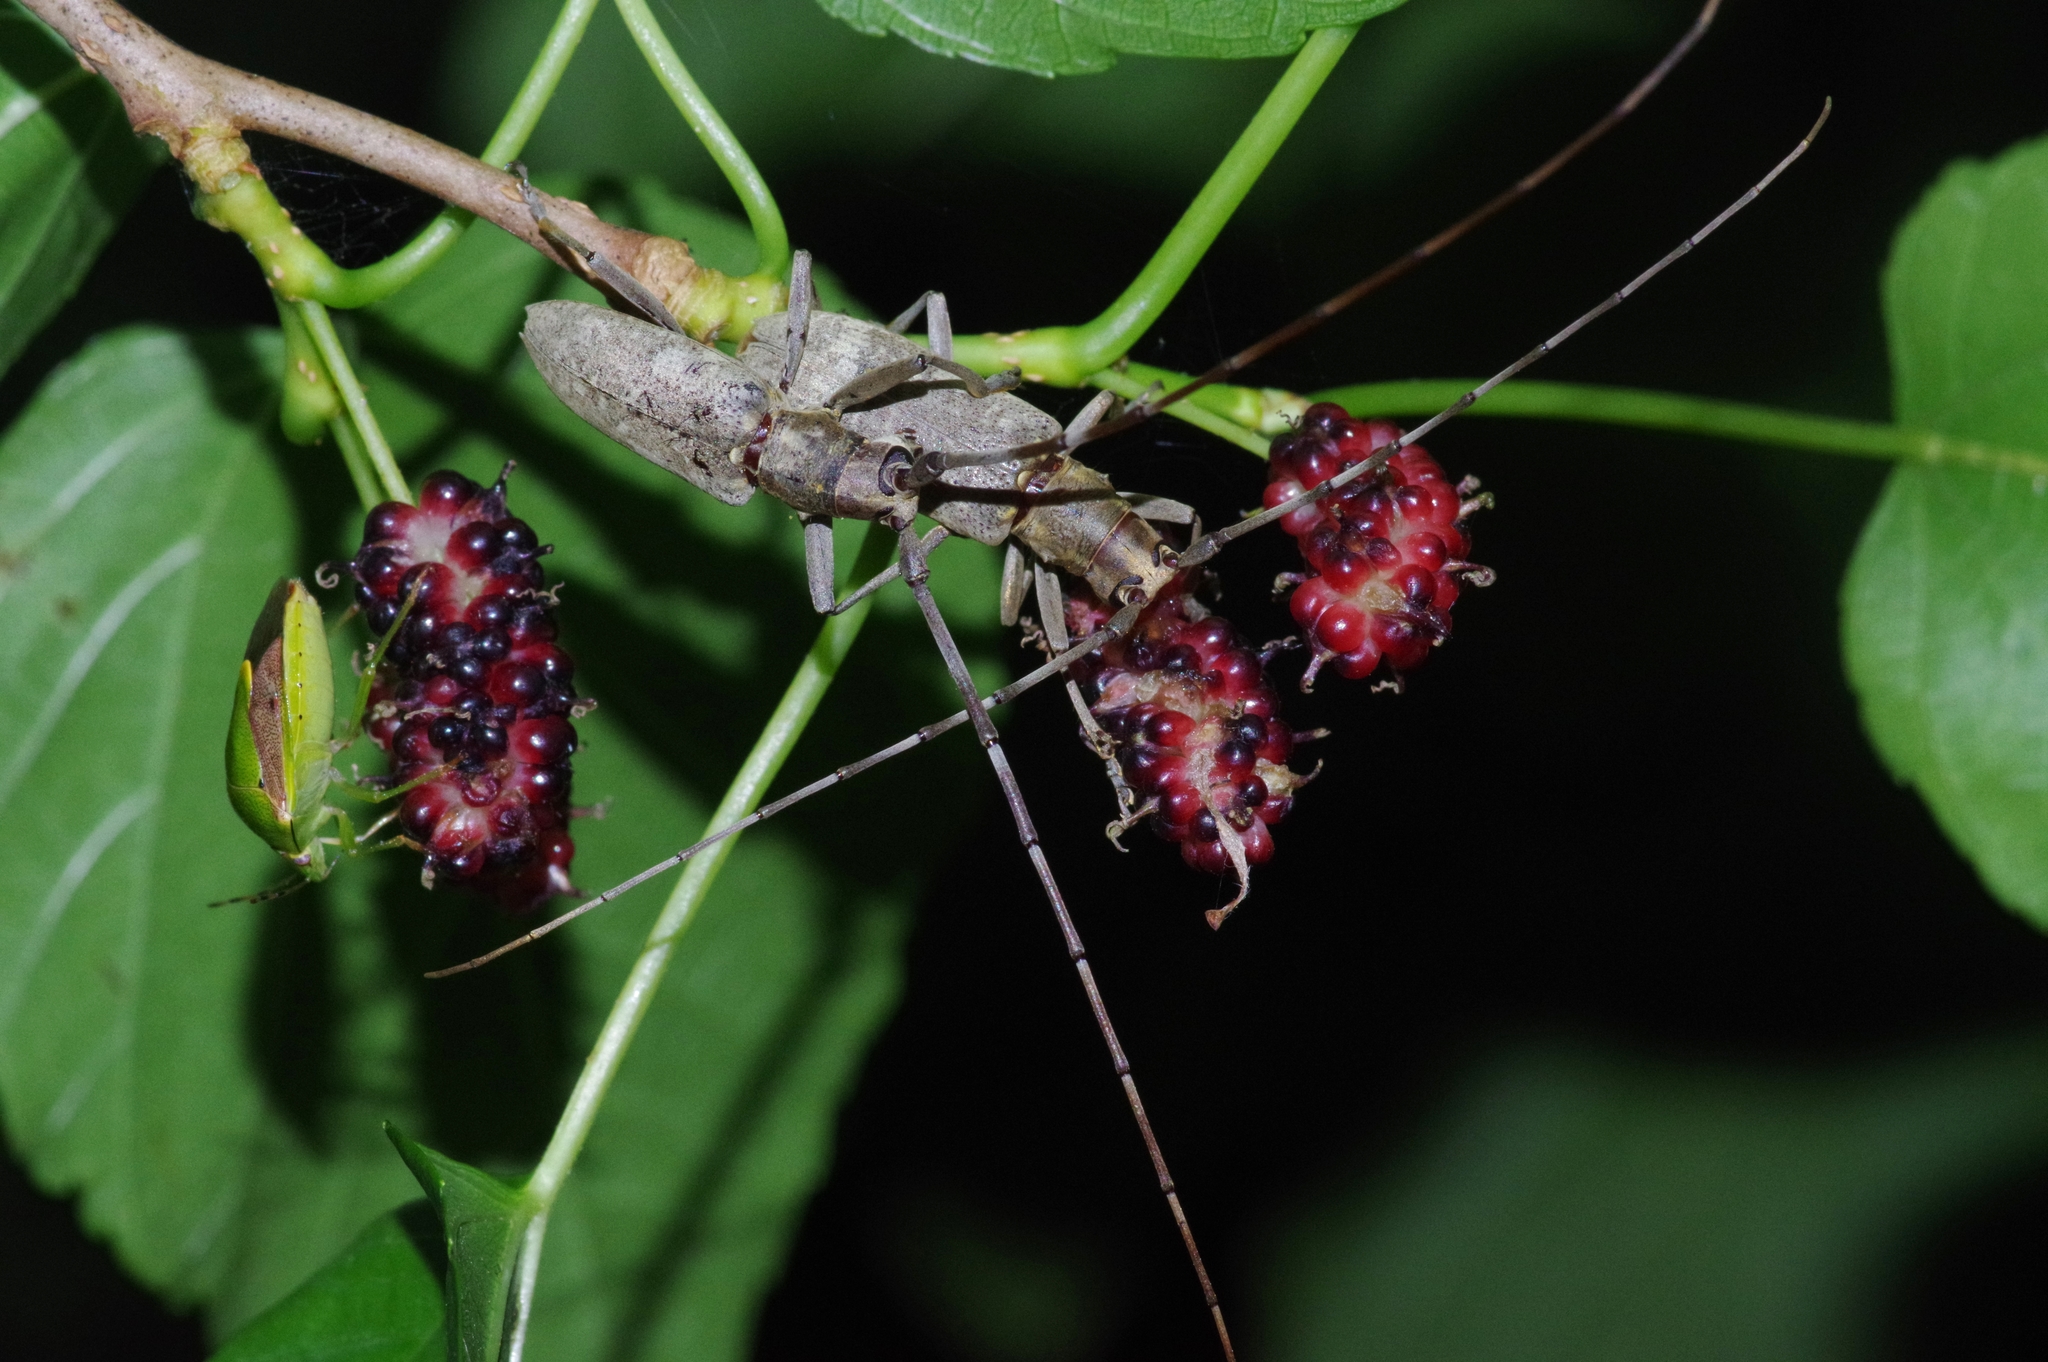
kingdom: Animalia
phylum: Arthropoda
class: Insecta
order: Coleoptera
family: Cerambycidae
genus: Psacothea
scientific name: Psacothea hilaris
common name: Yellow-spotted longicorn beetle
